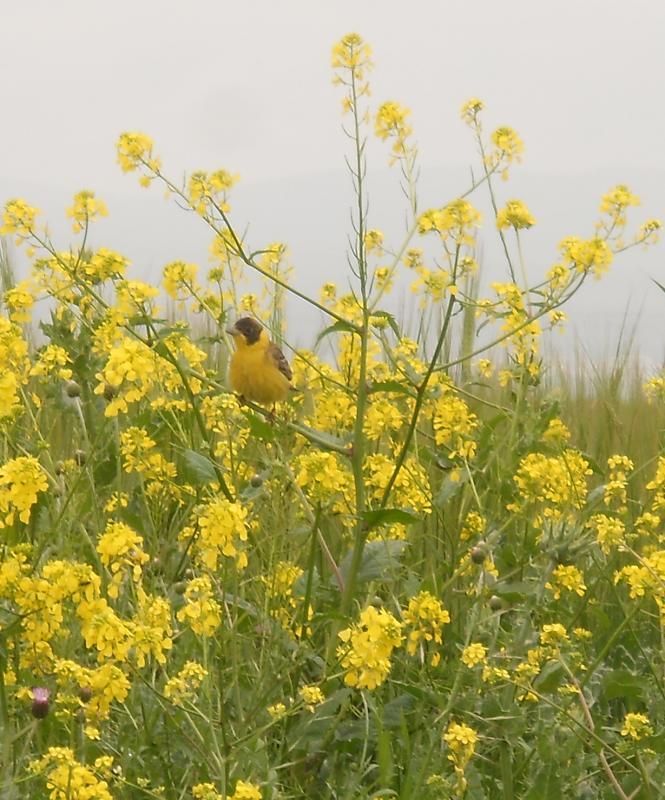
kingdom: Animalia
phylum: Chordata
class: Aves
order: Passeriformes
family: Emberizidae
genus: Emberiza
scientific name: Emberiza melanocephala
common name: Black-headed bunting
